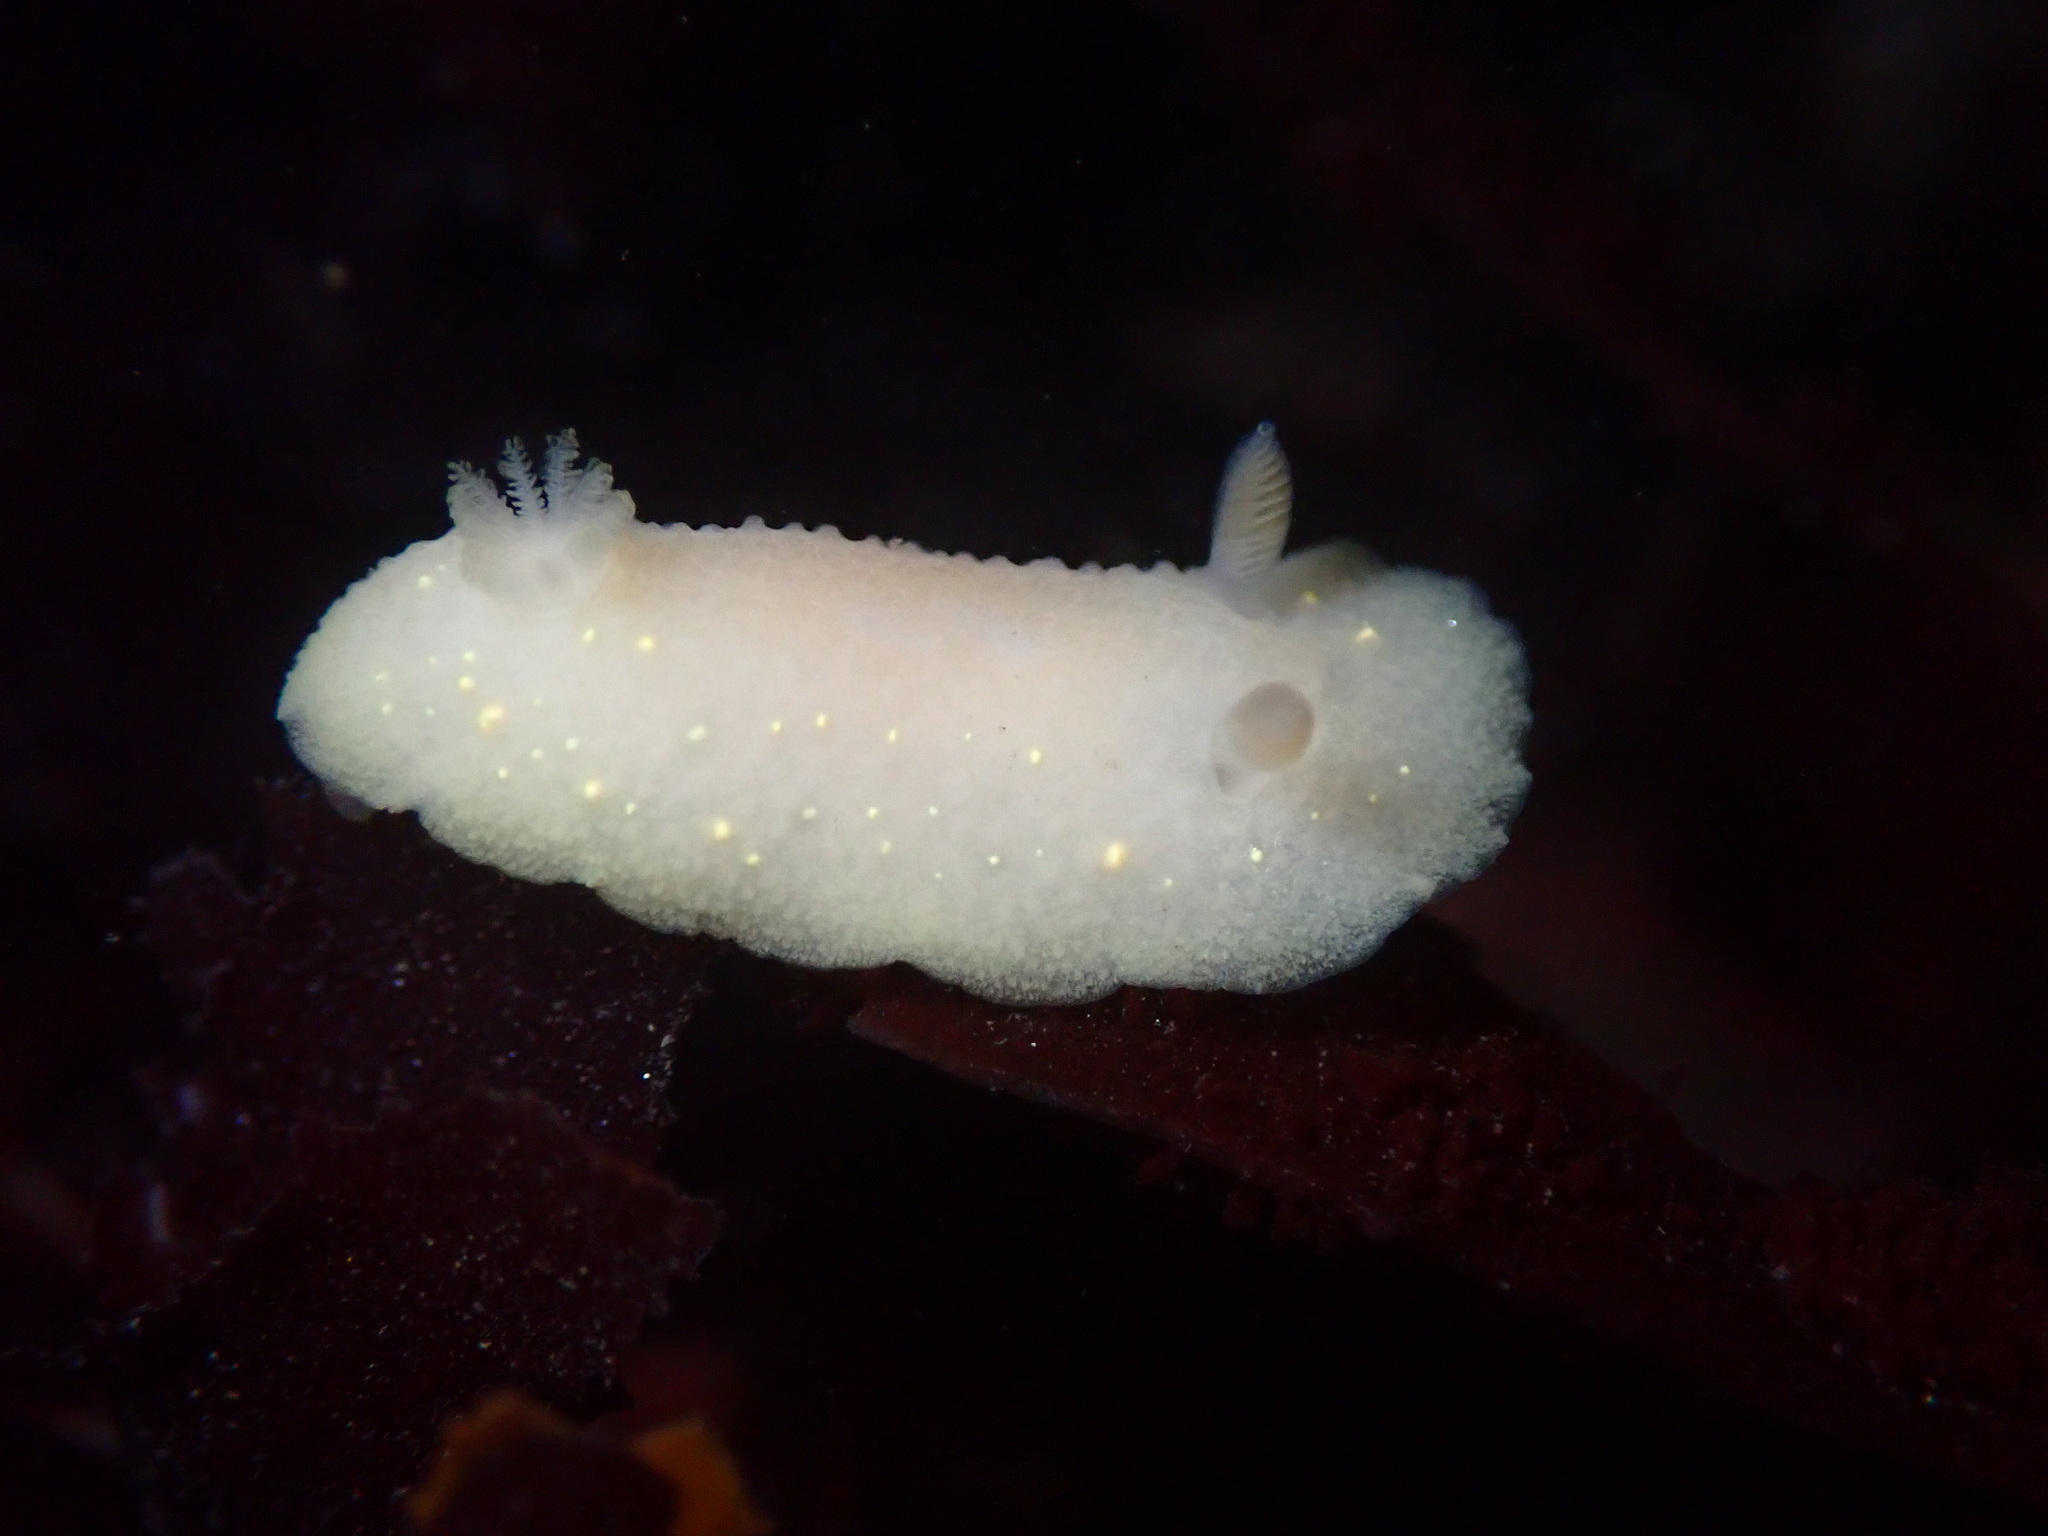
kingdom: Animalia
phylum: Mollusca
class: Gastropoda
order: Nudibranchia
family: Cadlinidae
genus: Cadlina
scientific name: Cadlina modesta
